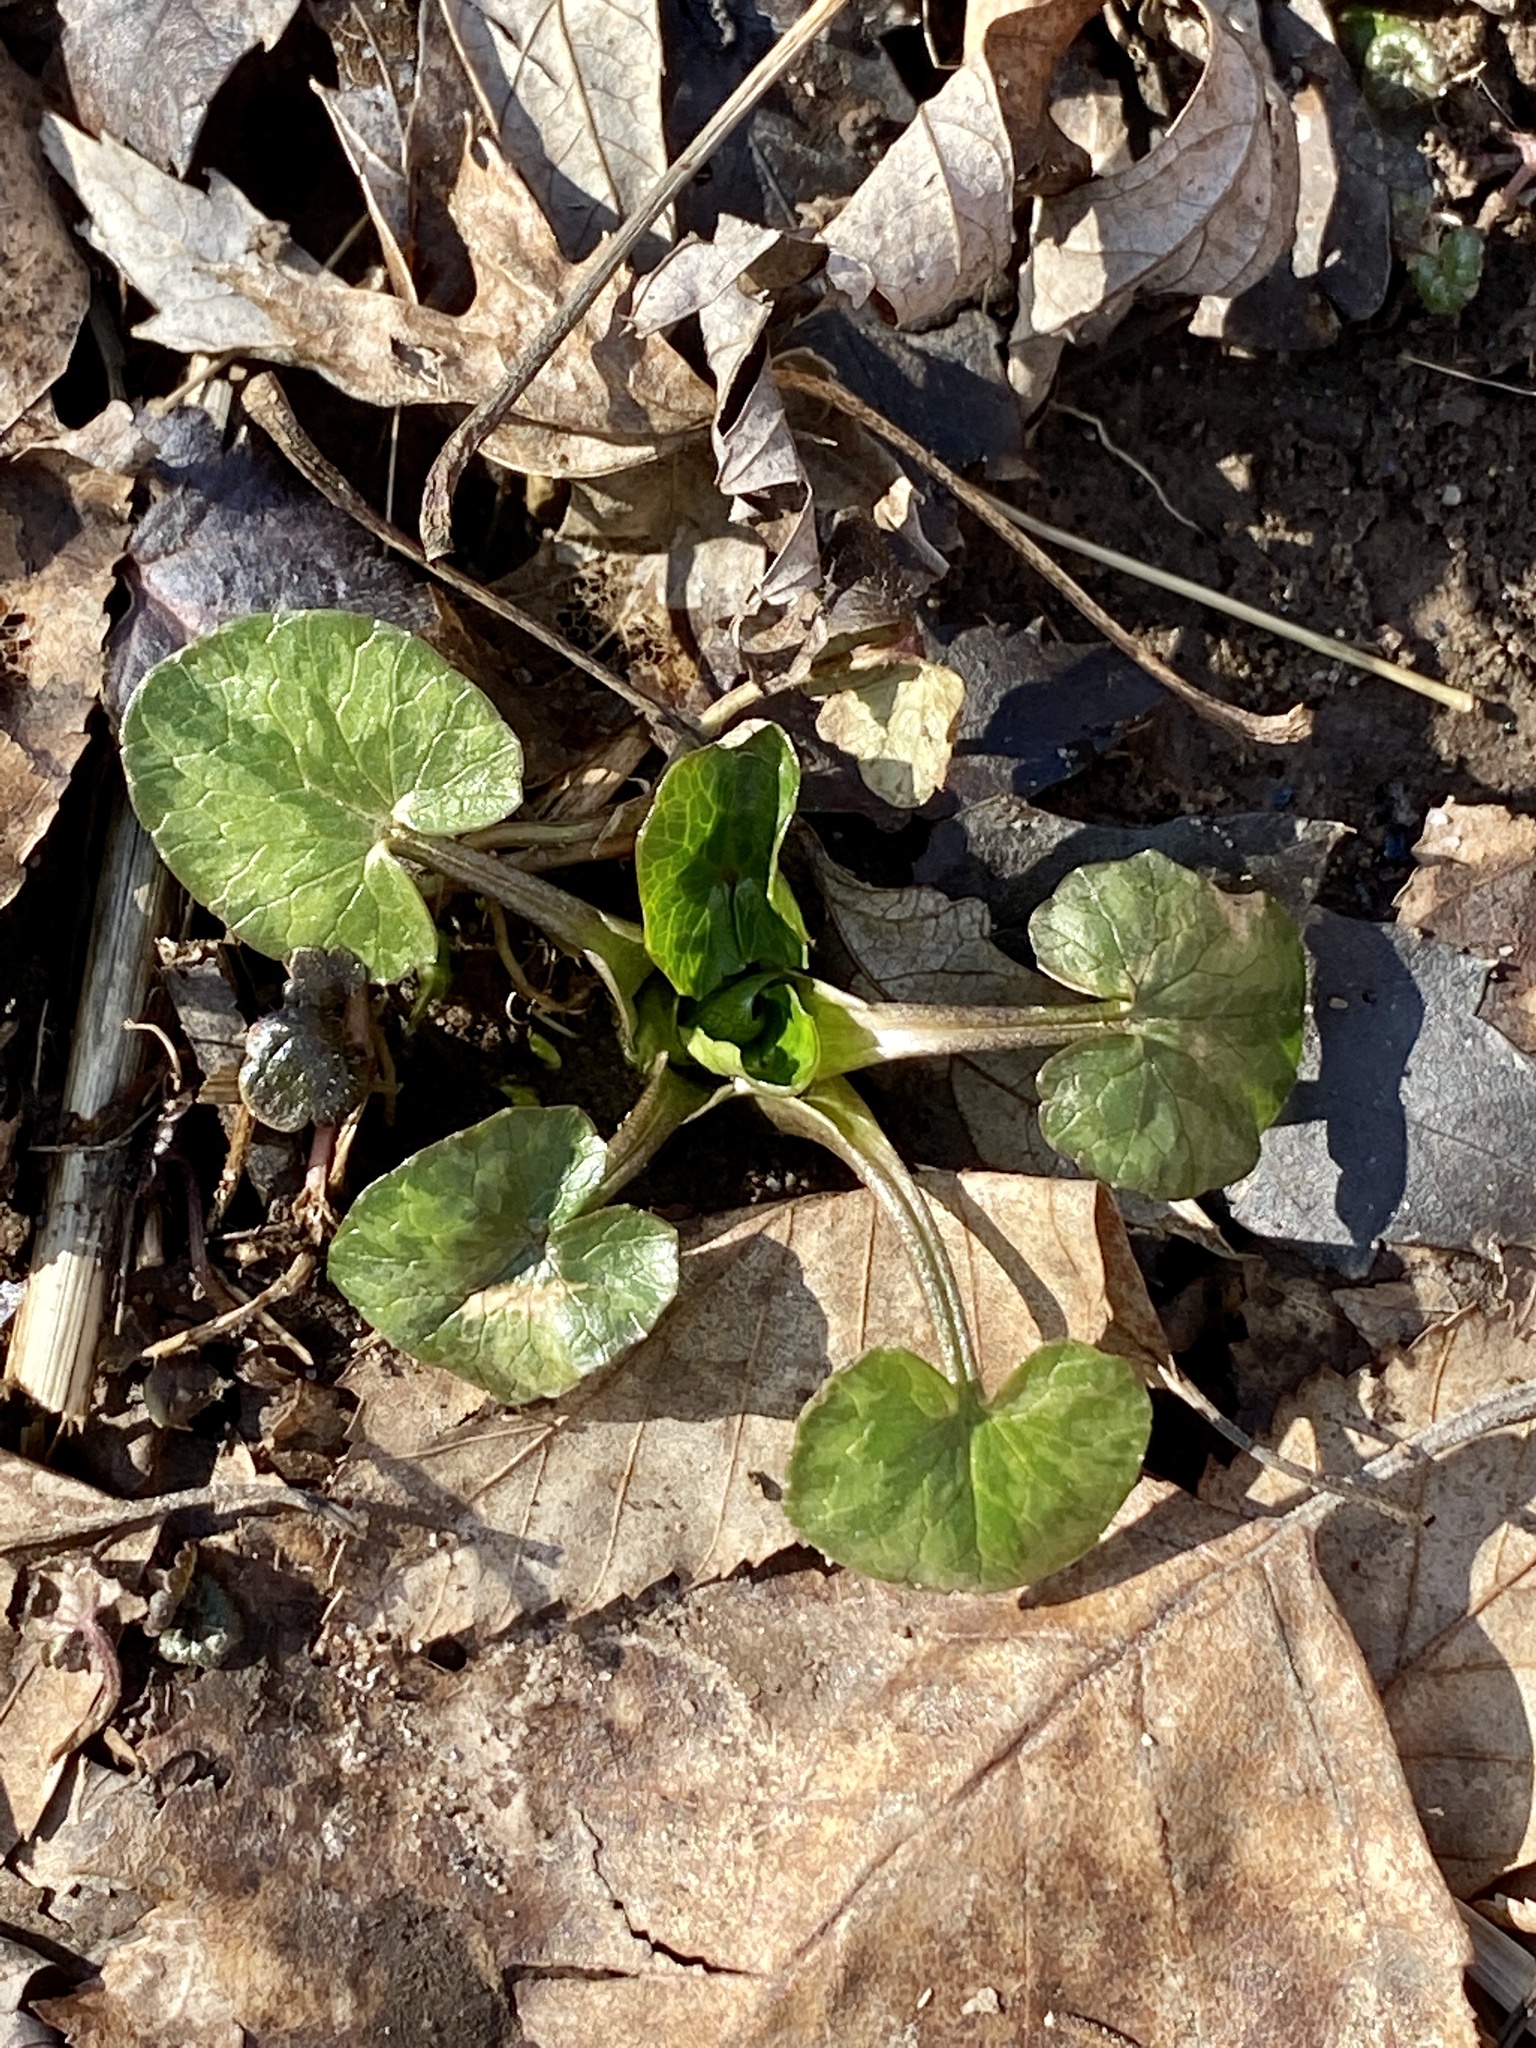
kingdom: Plantae
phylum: Tracheophyta
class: Magnoliopsida
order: Ranunculales
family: Ranunculaceae
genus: Ficaria
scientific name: Ficaria verna
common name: Lesser celandine
